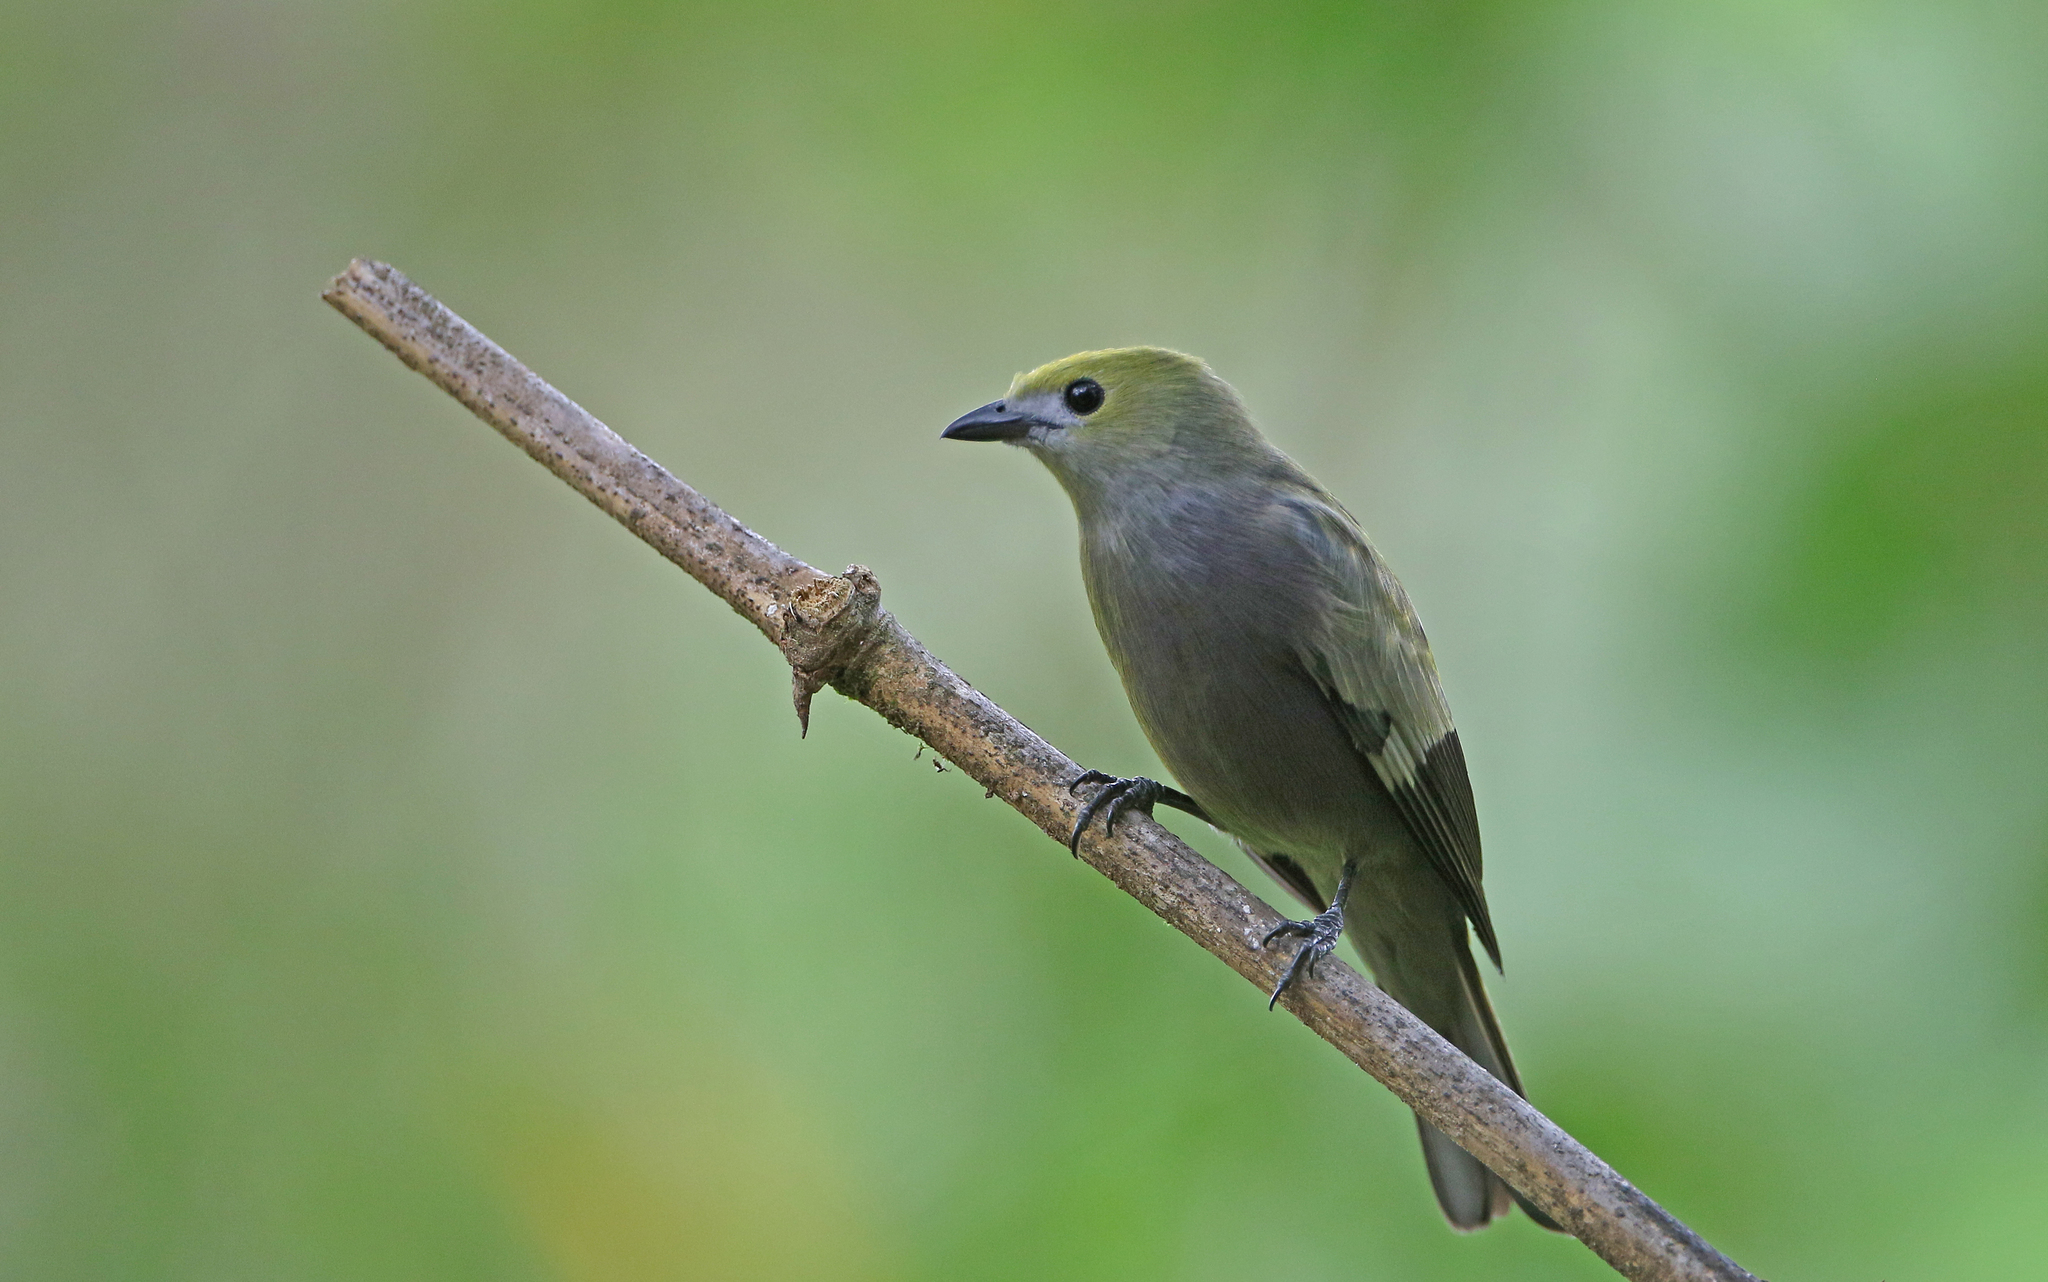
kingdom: Animalia
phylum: Chordata
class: Aves
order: Passeriformes
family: Thraupidae
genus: Thraupis
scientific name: Thraupis palmarum
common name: Palm tanager
